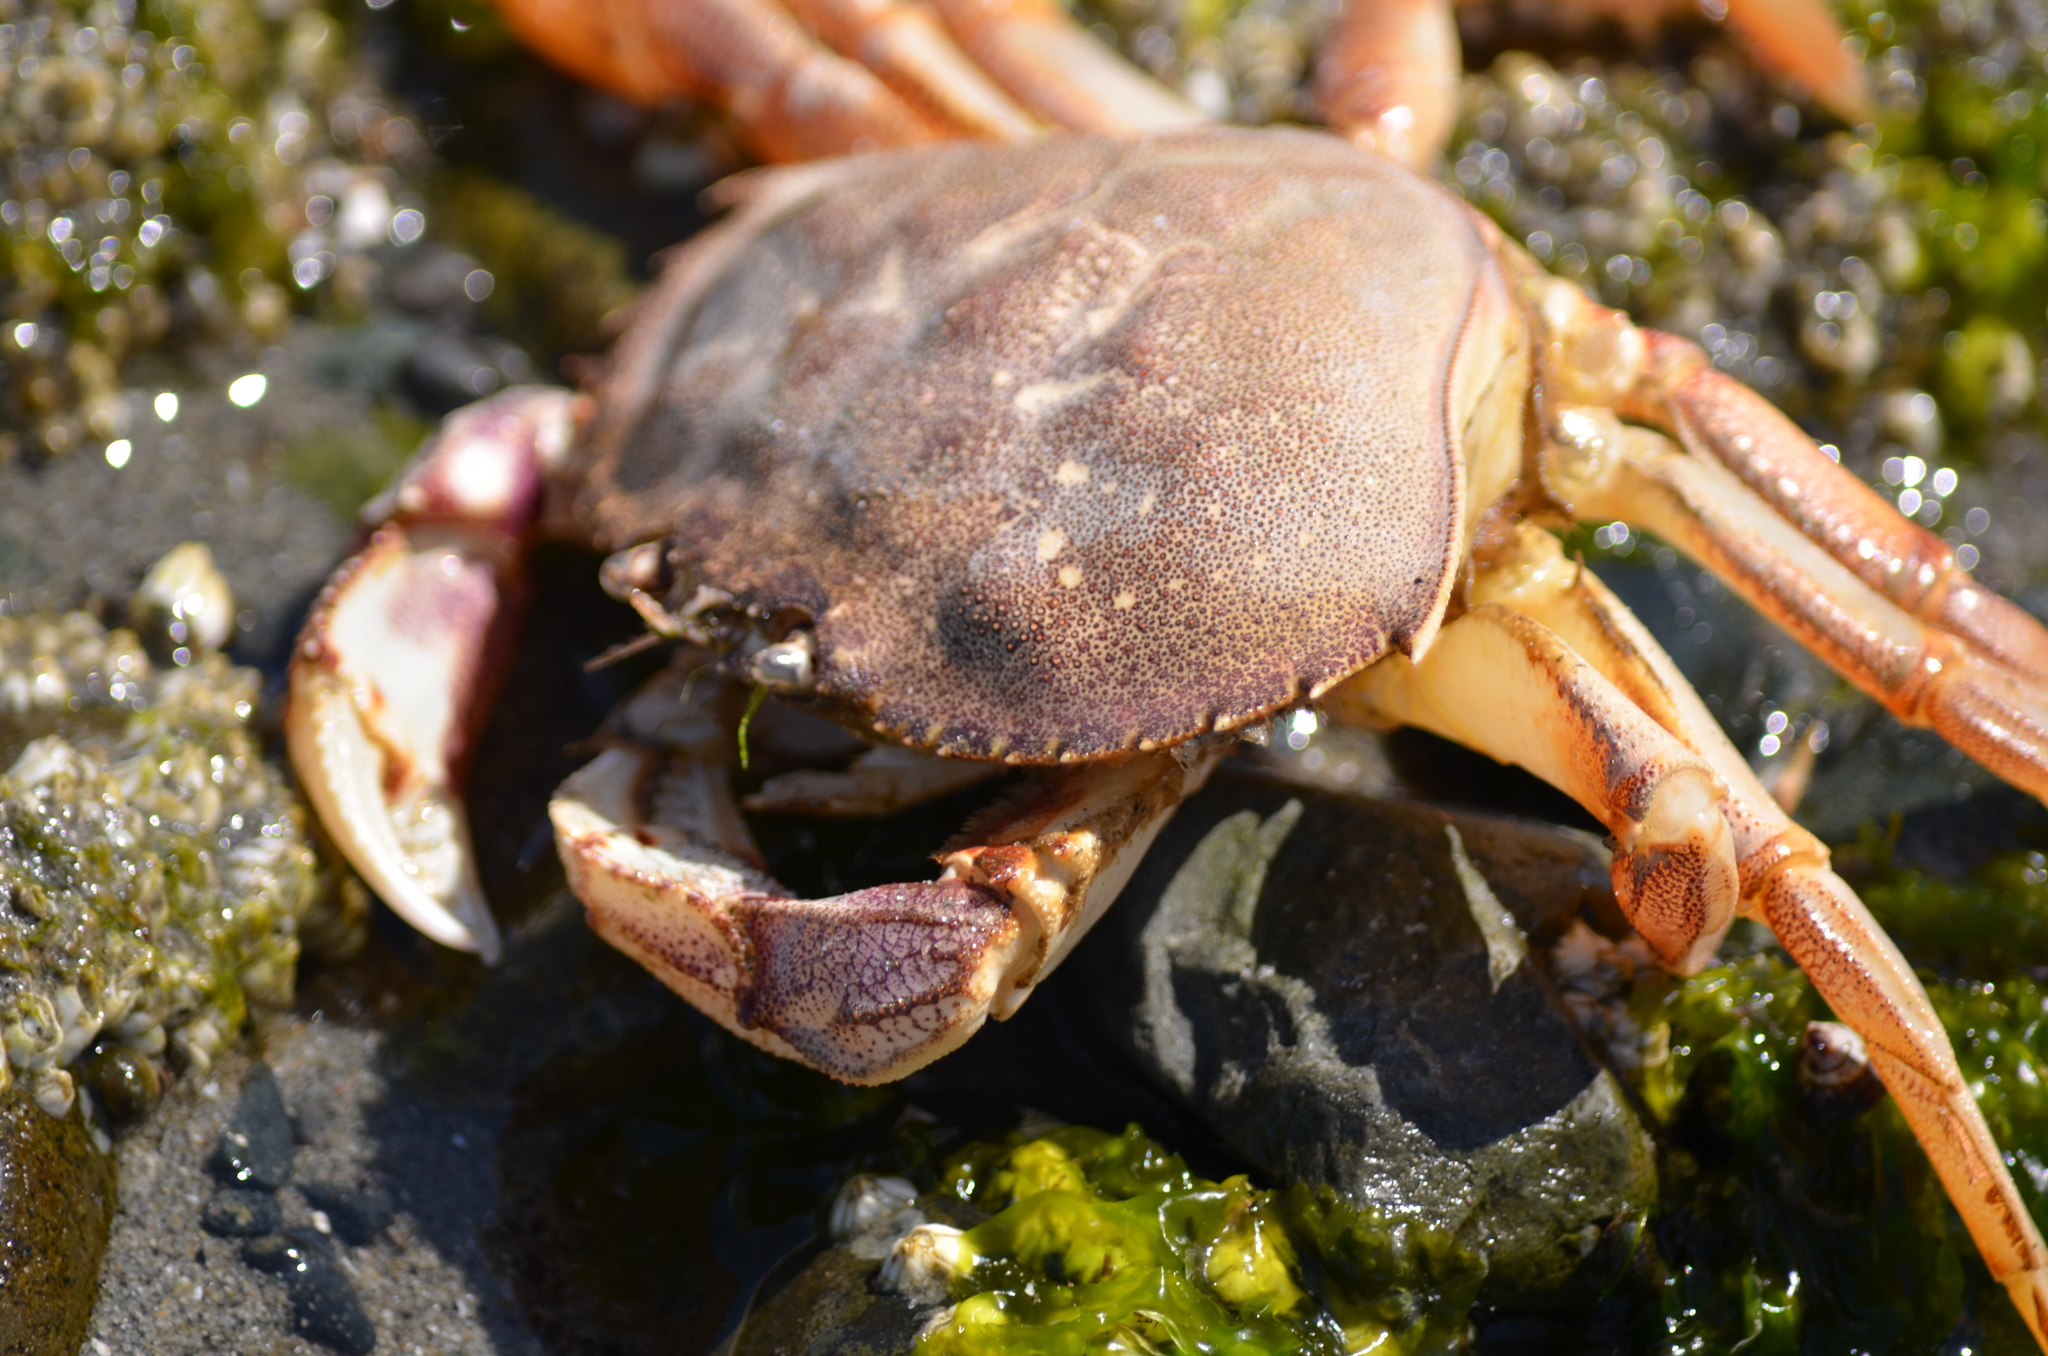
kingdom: Animalia
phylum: Arthropoda
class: Malacostraca
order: Decapoda
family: Cancridae
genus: Metacarcinus
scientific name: Metacarcinus magister
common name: Californian crab
